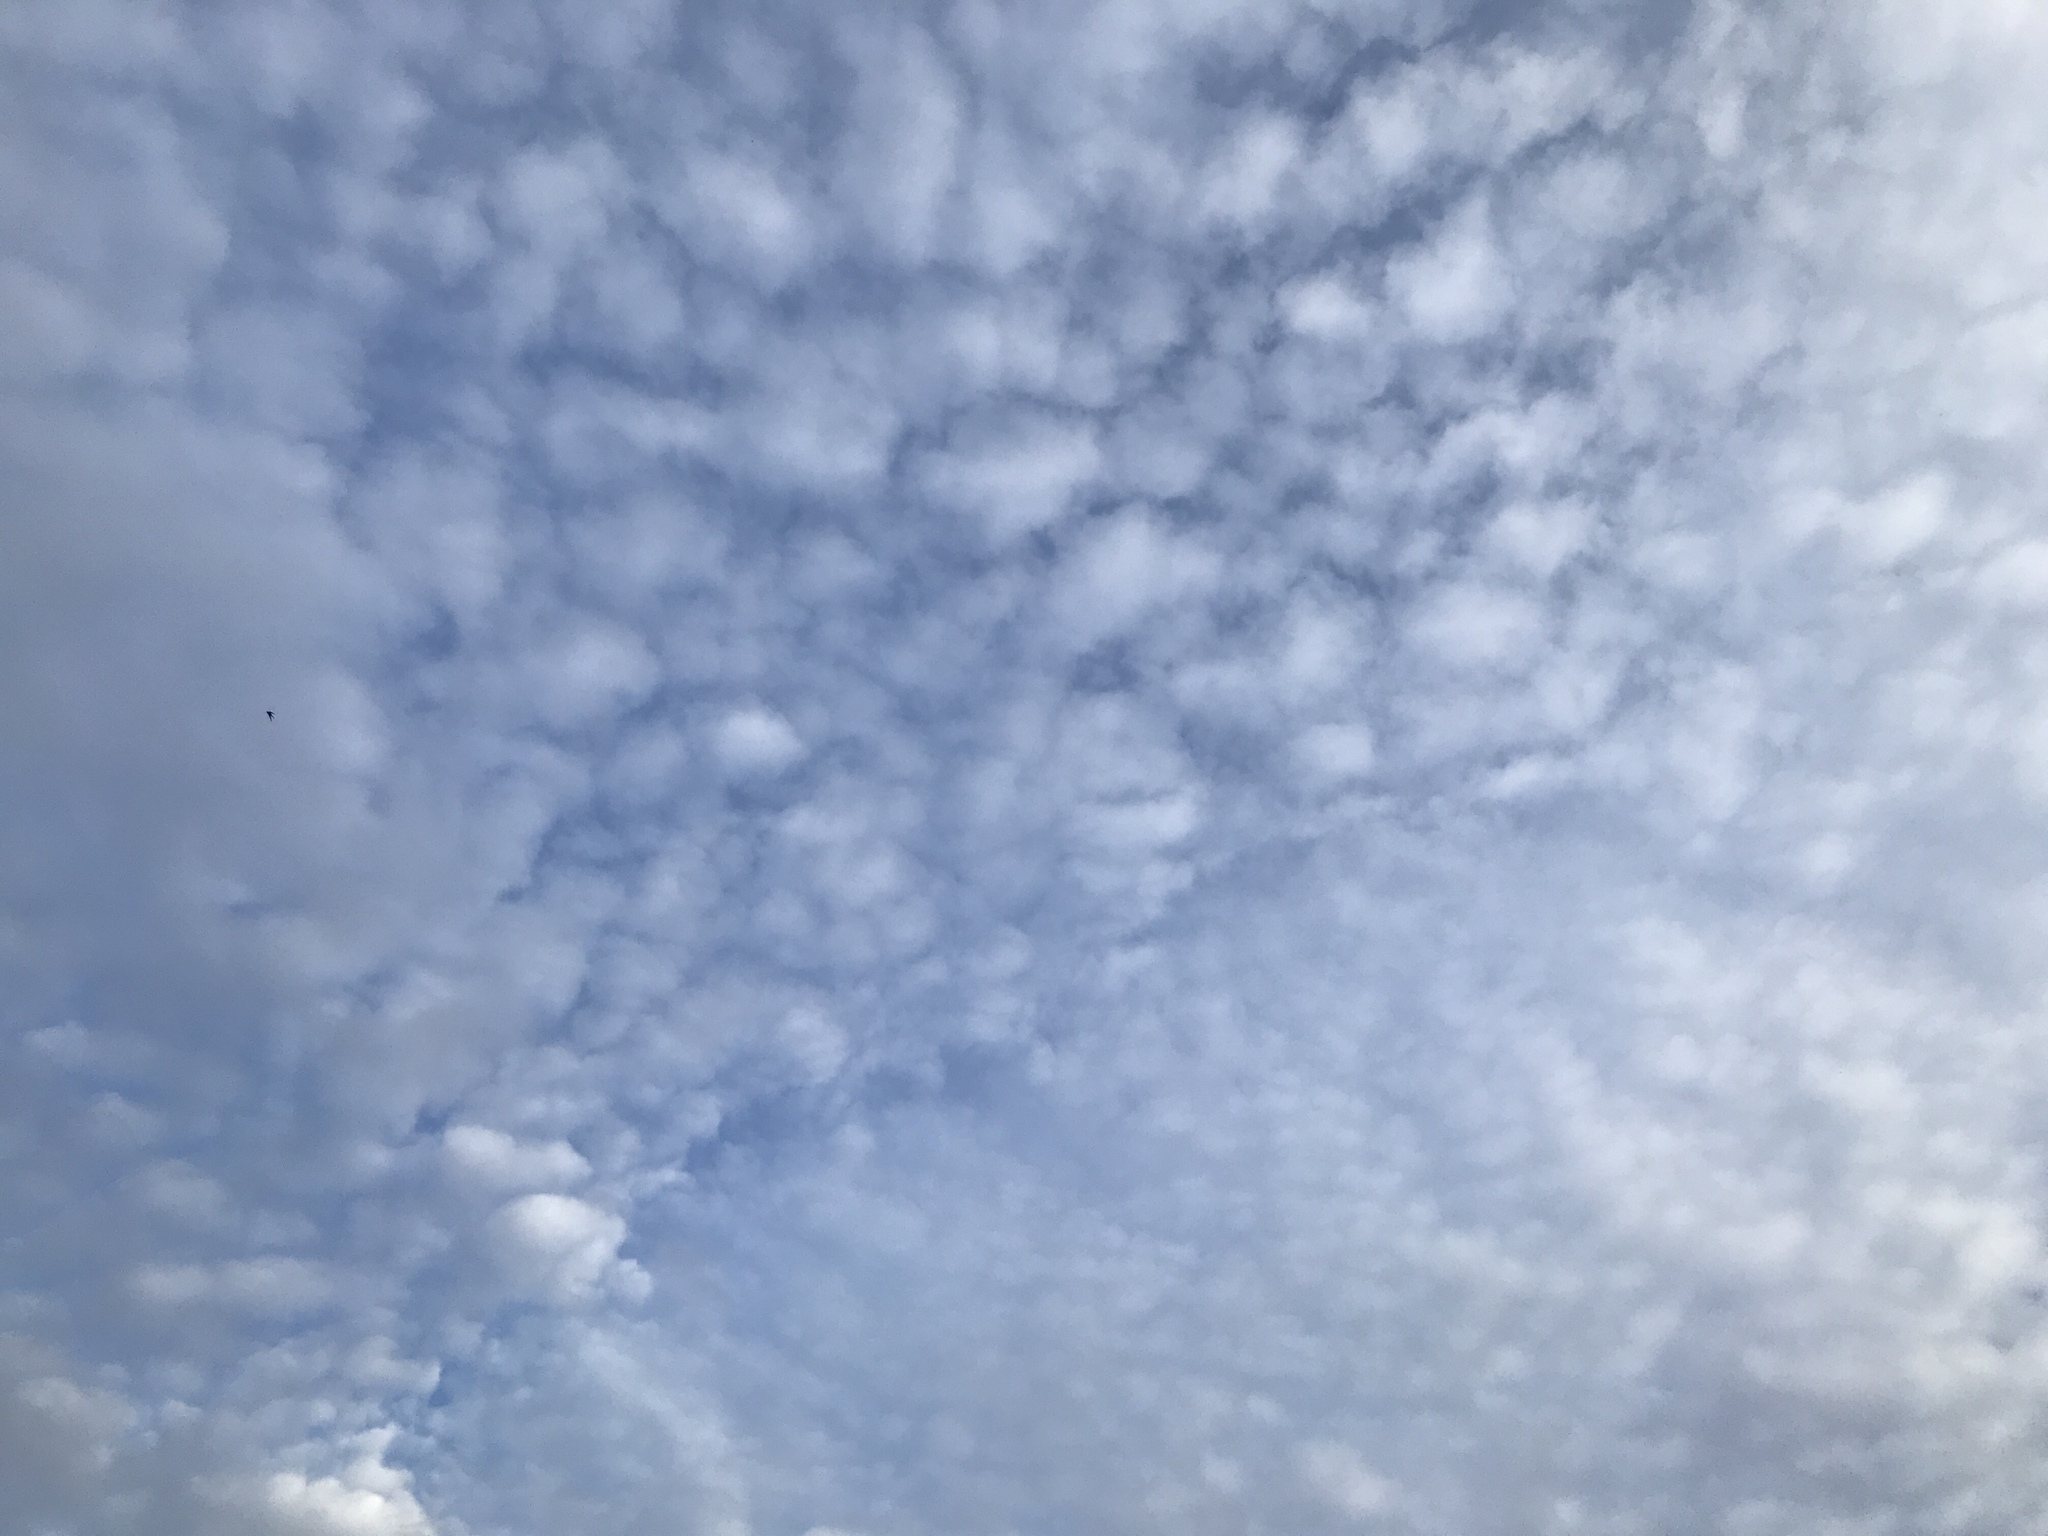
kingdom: Animalia
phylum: Chordata
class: Aves
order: Apodiformes
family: Apodidae
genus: Apus
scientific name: Apus apus
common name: Common swift
